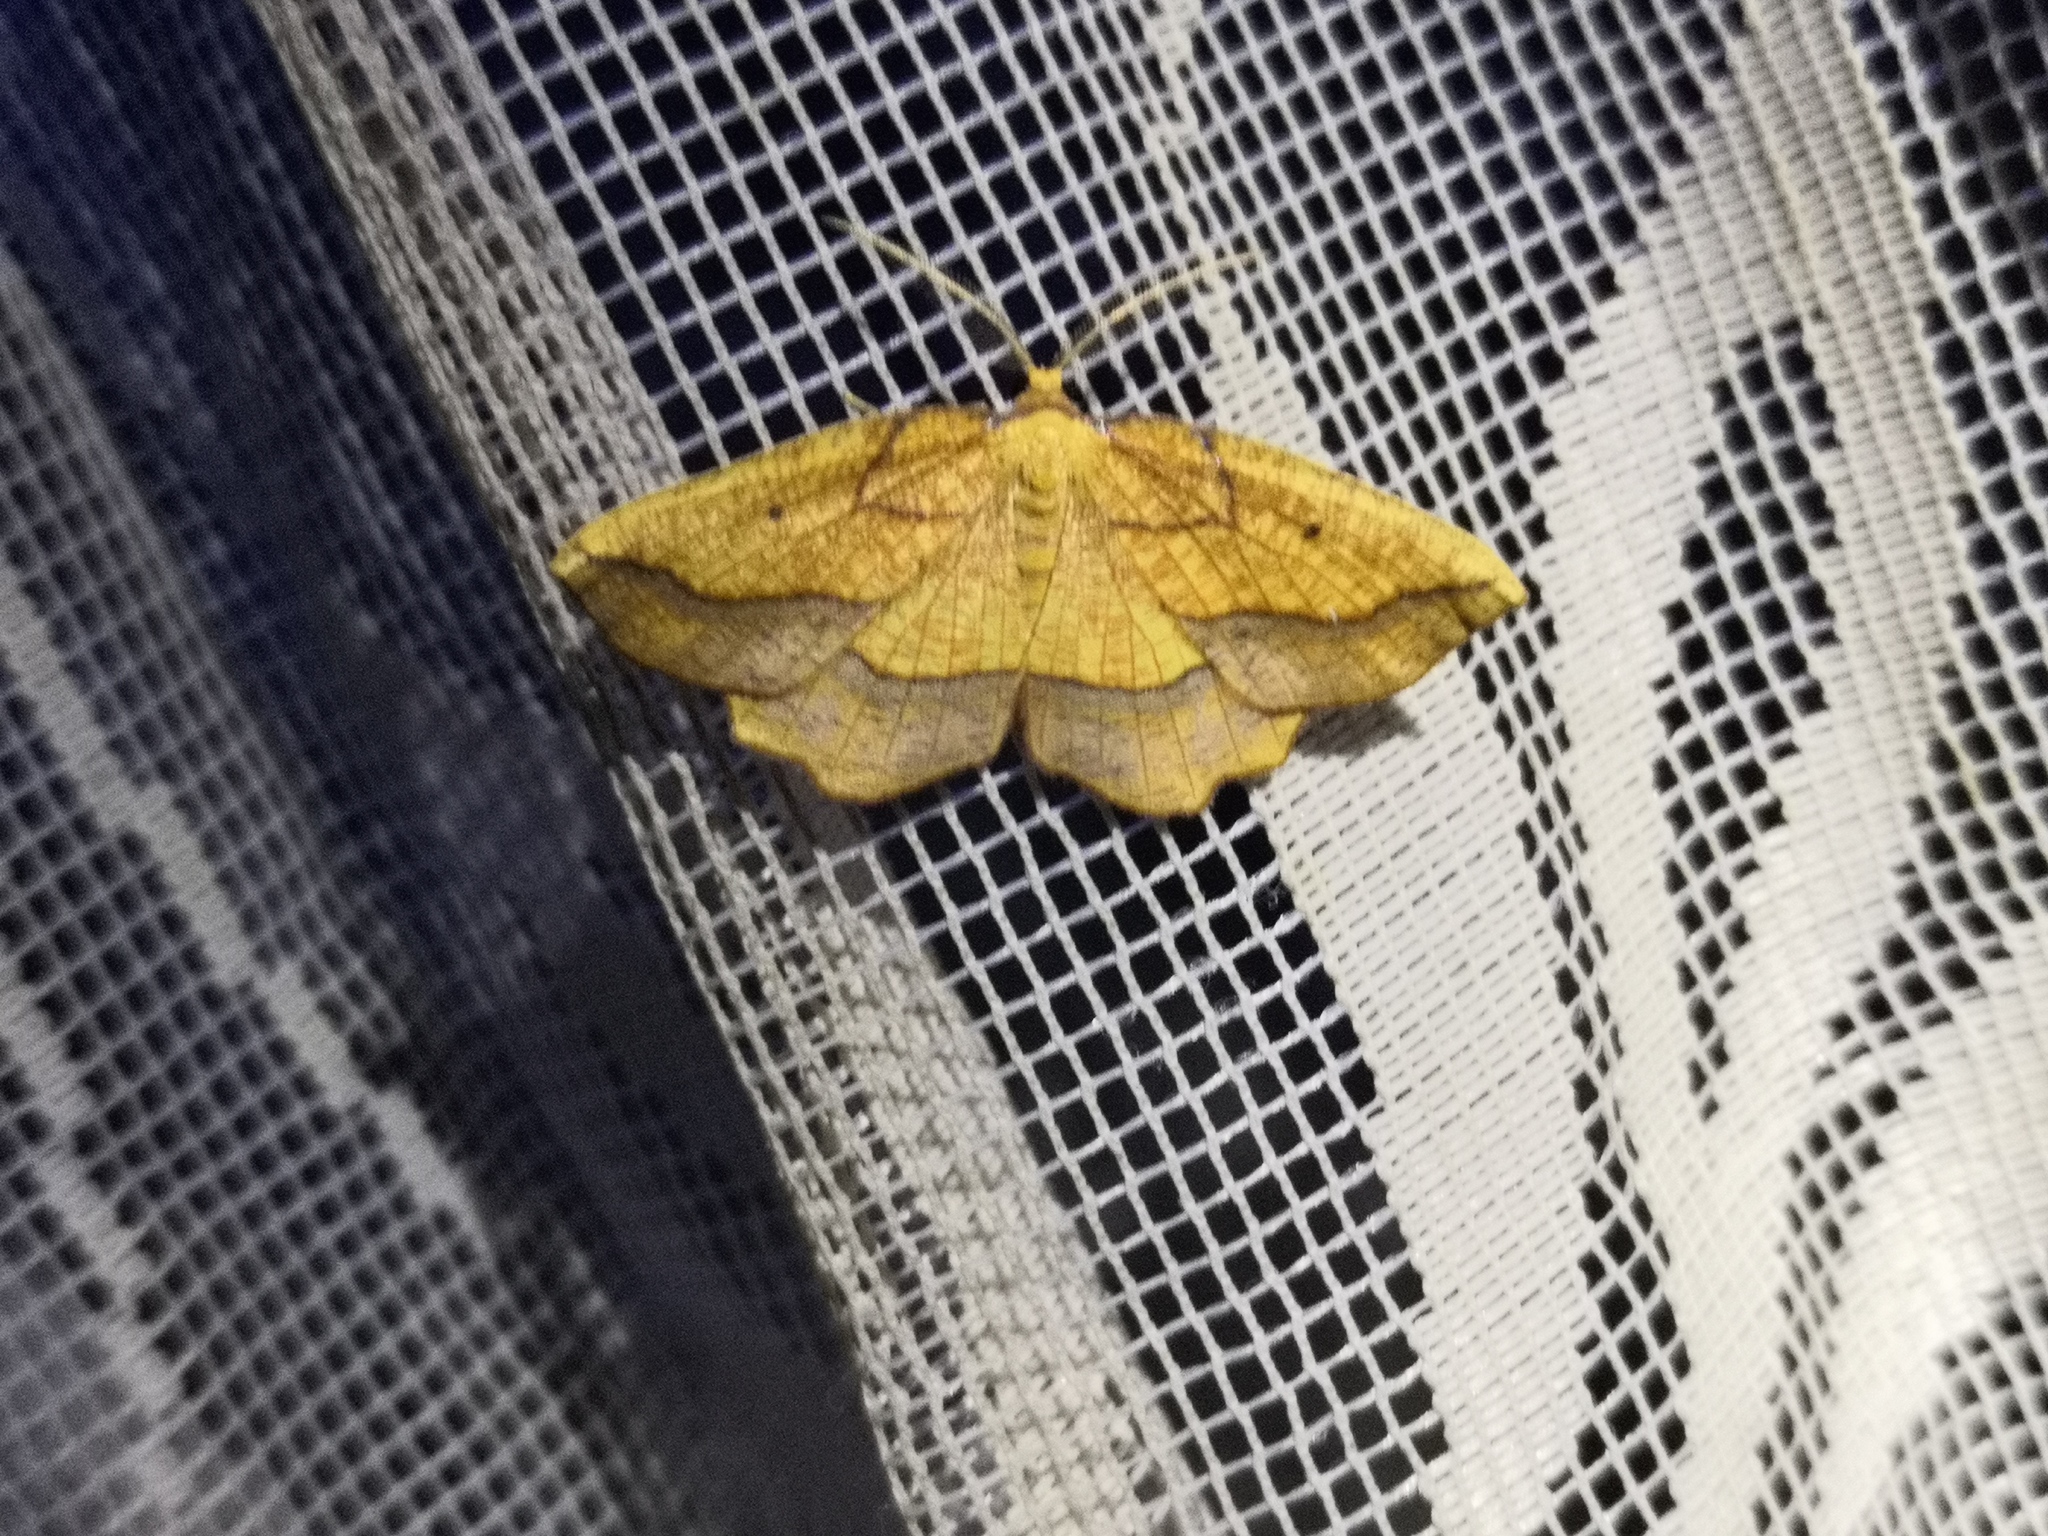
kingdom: Animalia
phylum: Arthropoda
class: Insecta
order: Lepidoptera
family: Geometridae
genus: Epione
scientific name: Epione repandaria
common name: Bordered beauty
